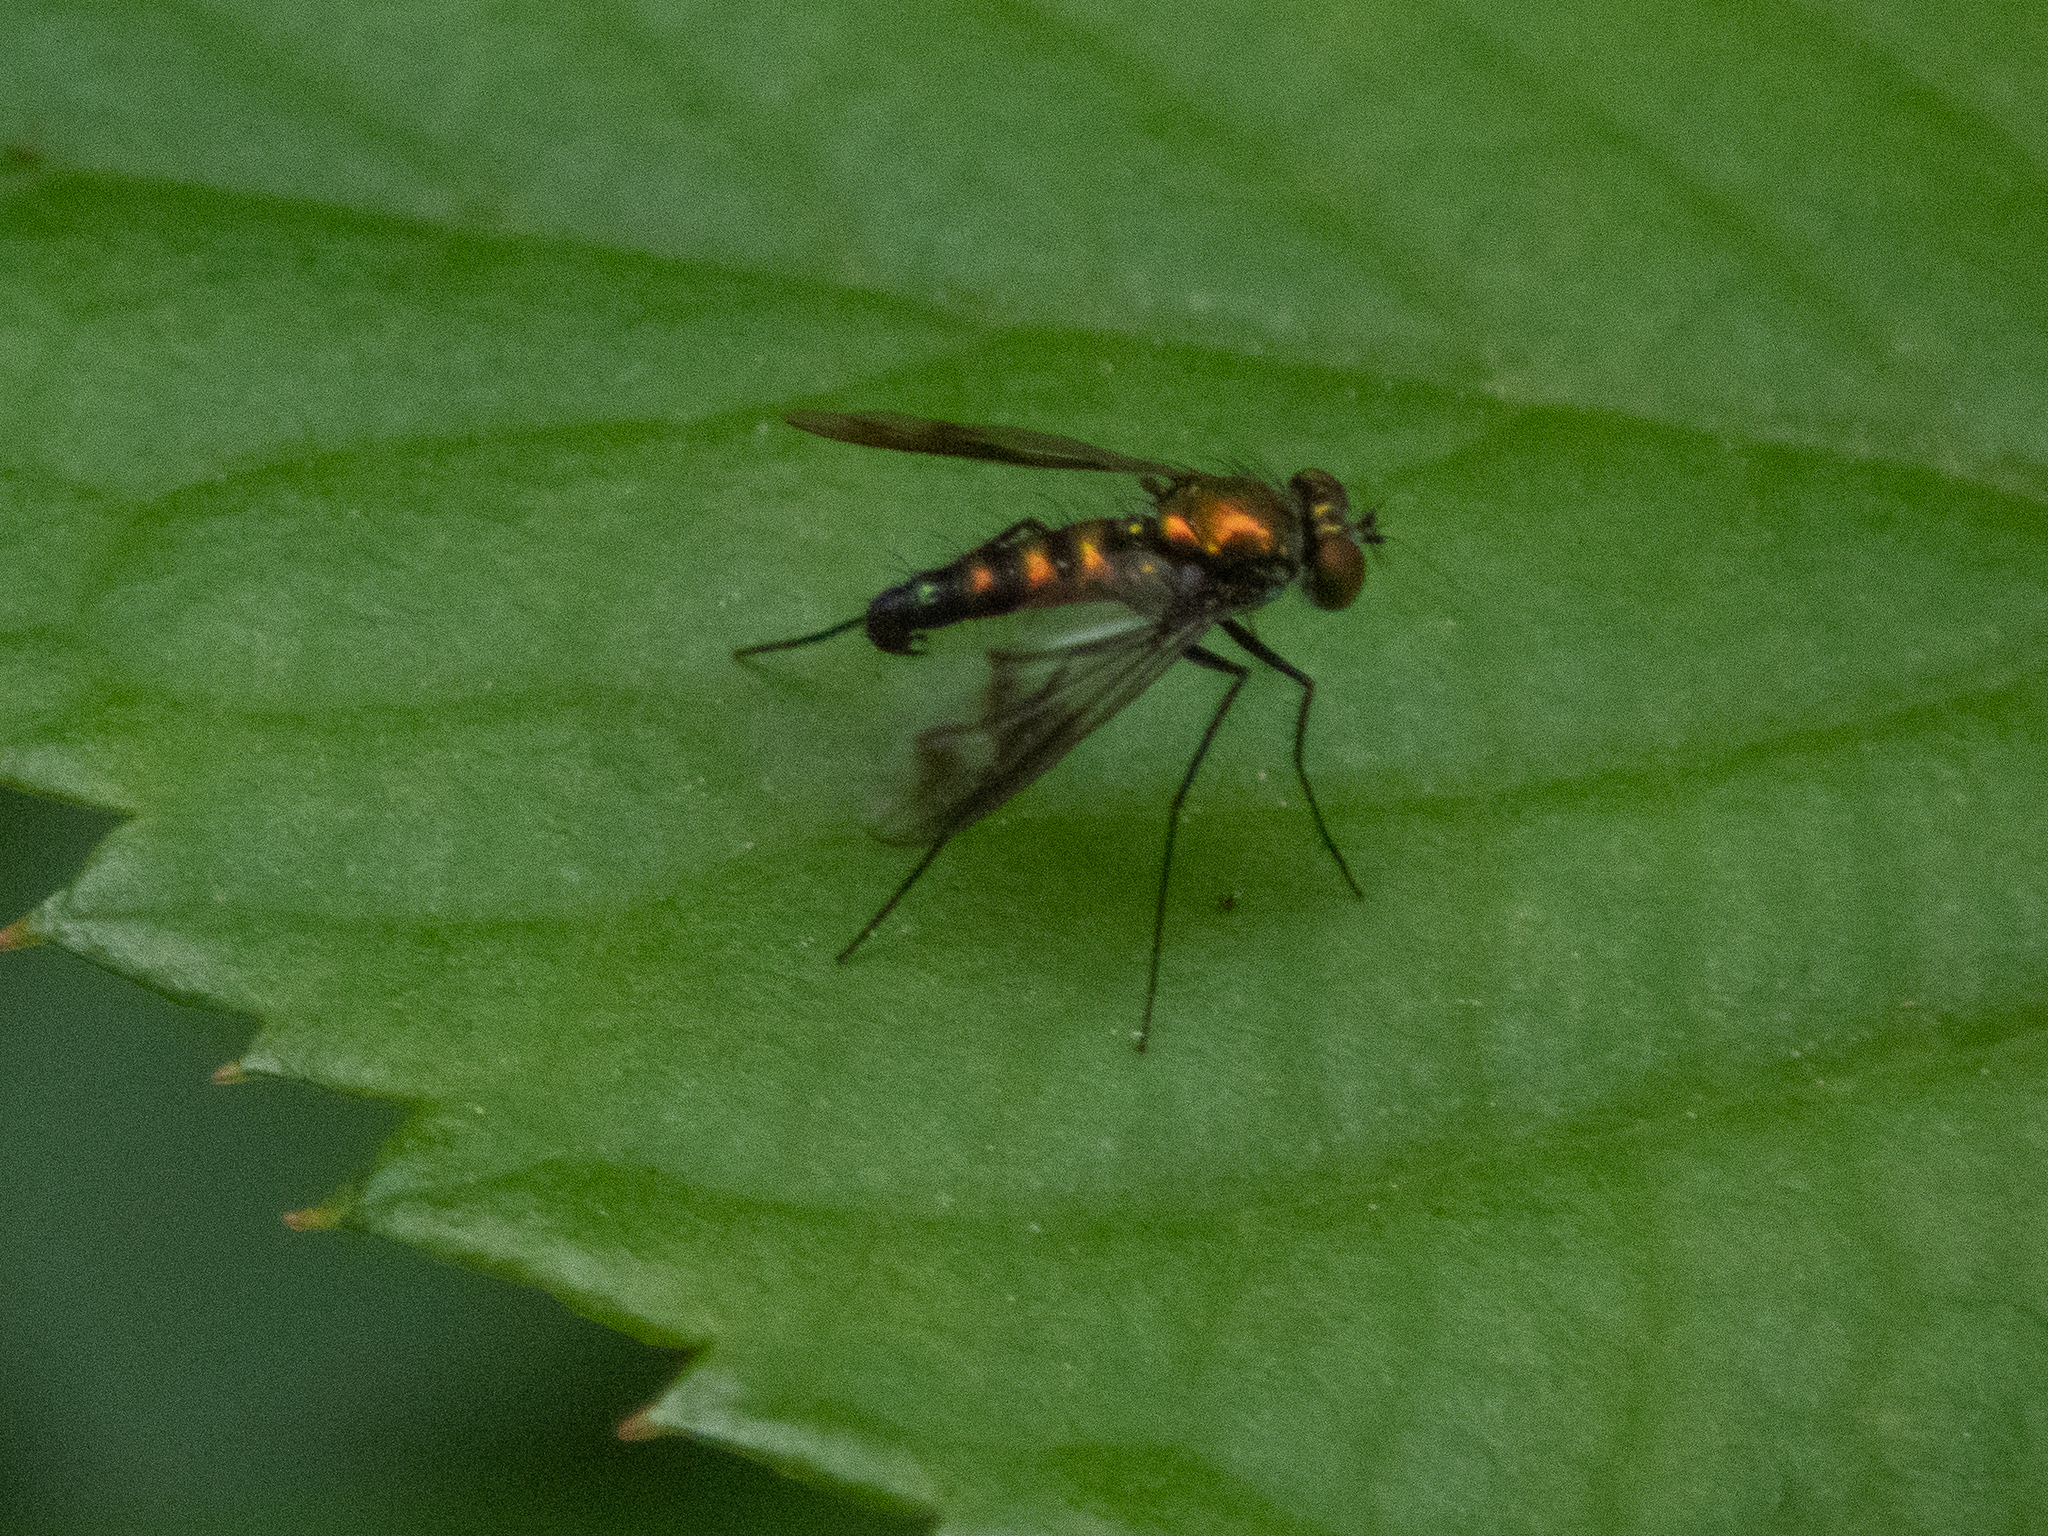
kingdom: Animalia
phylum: Arthropoda
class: Insecta
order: Diptera
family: Dolichopodidae
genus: Condylostylus
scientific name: Condylostylus patibulatus
